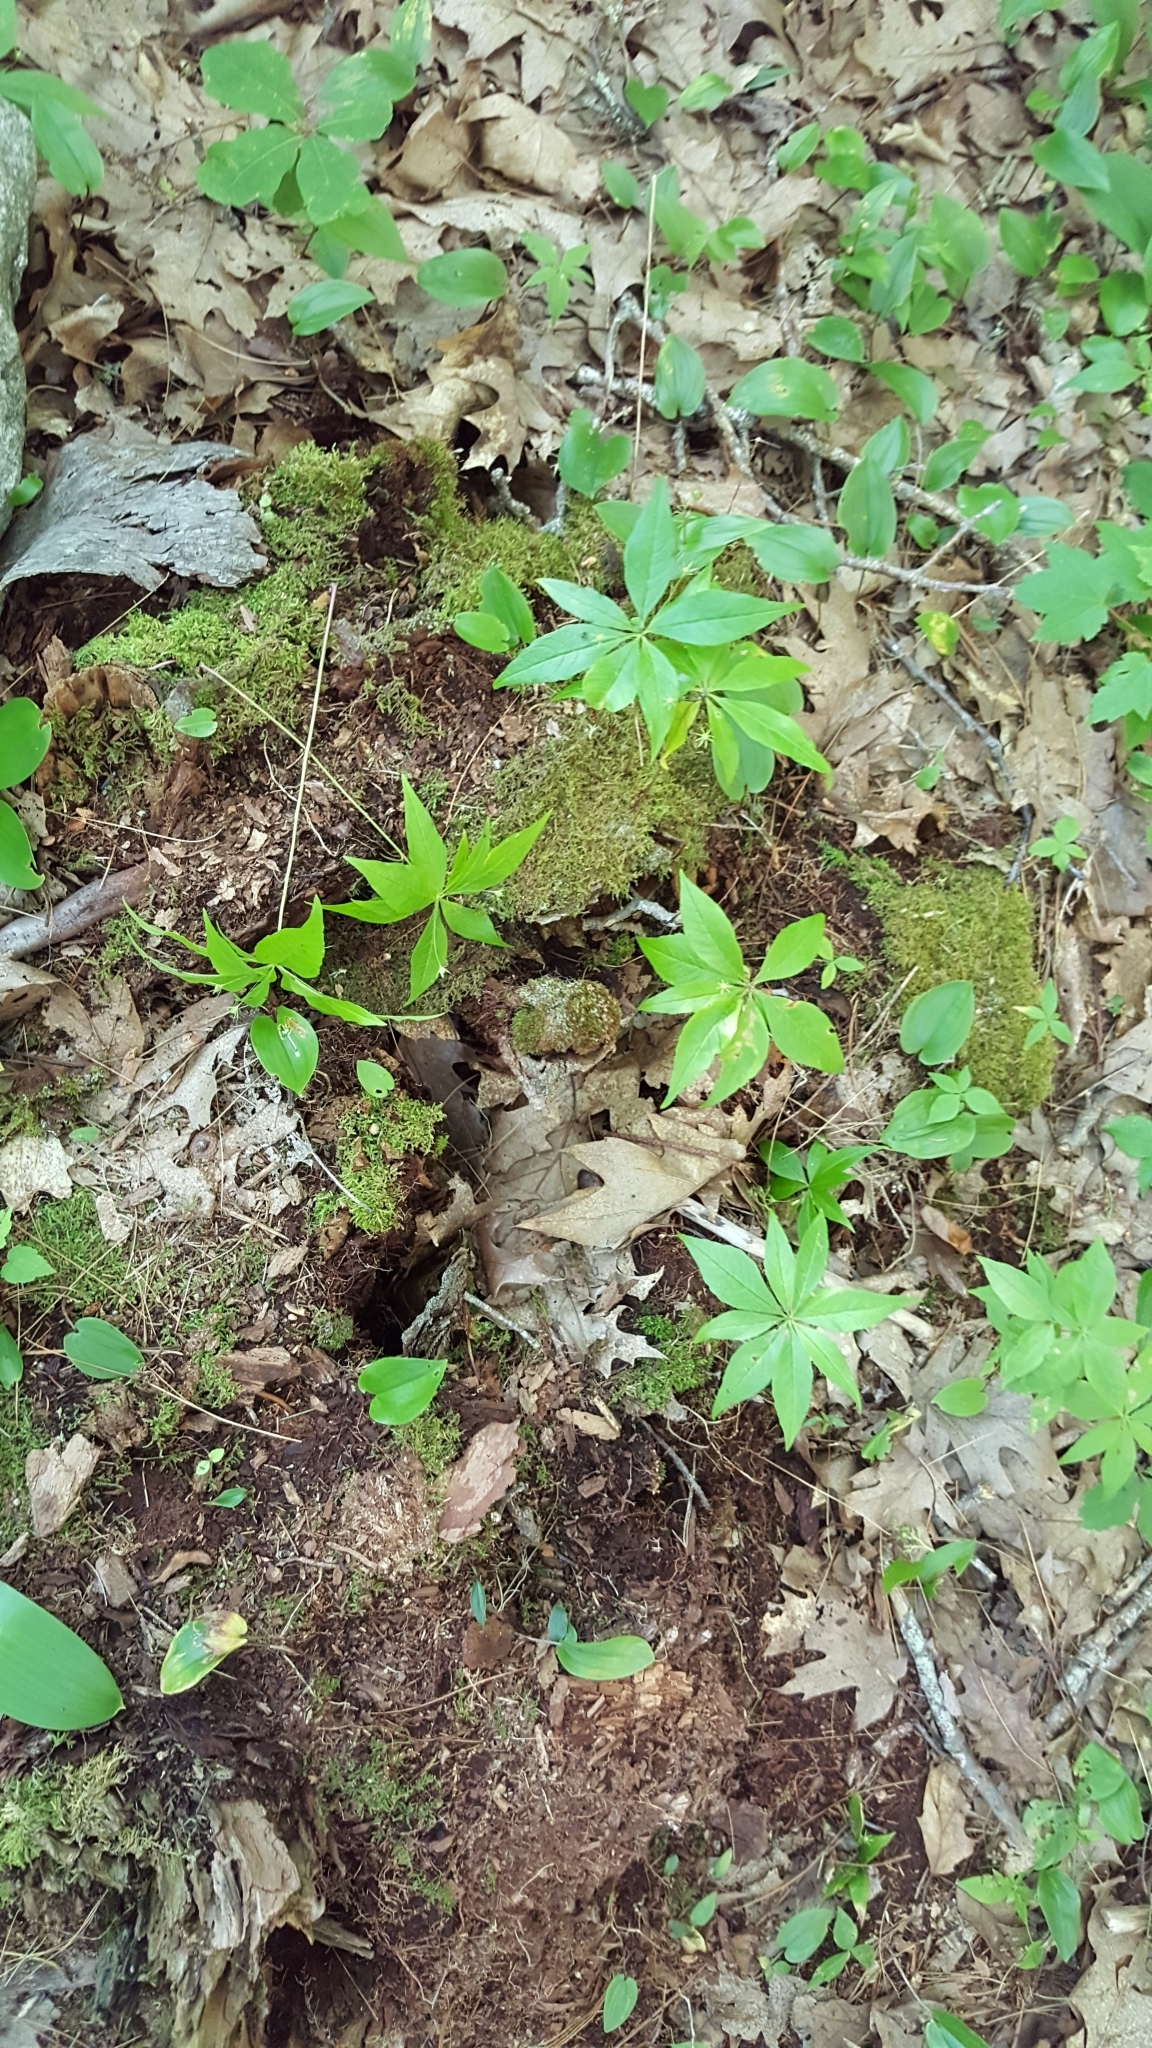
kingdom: Plantae
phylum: Tracheophyta
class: Magnoliopsida
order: Ericales
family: Primulaceae
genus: Lysimachia
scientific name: Lysimachia borealis
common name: American starflower
